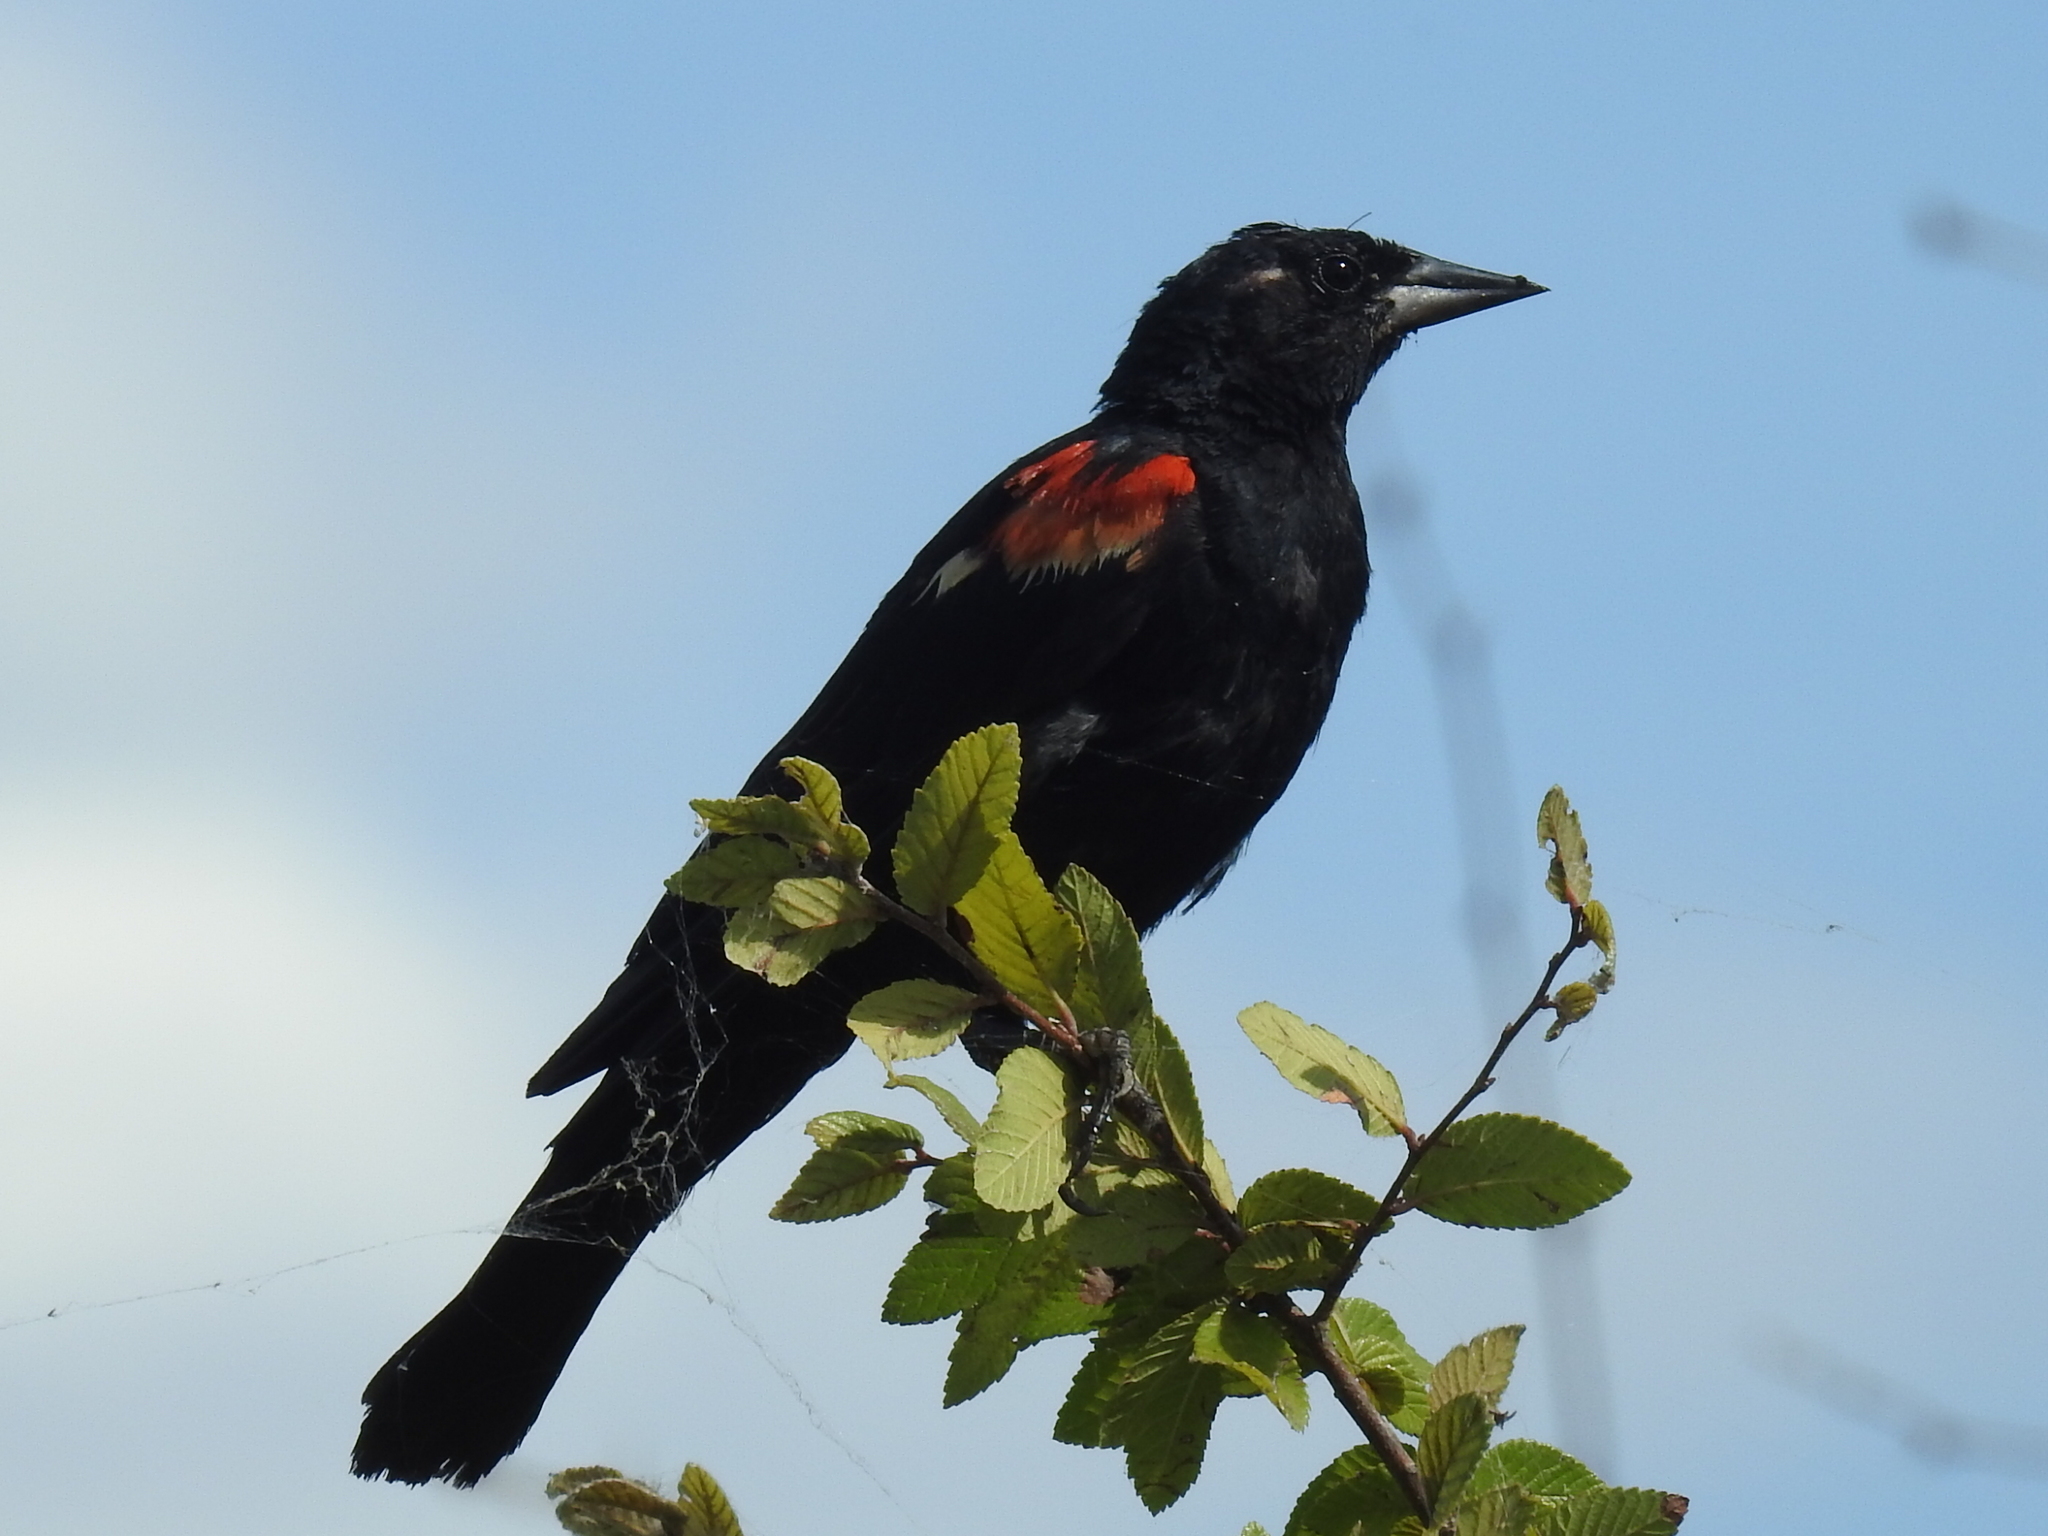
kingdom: Animalia
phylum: Chordata
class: Aves
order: Passeriformes
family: Icteridae
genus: Agelaius
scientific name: Agelaius phoeniceus
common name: Red-winged blackbird
